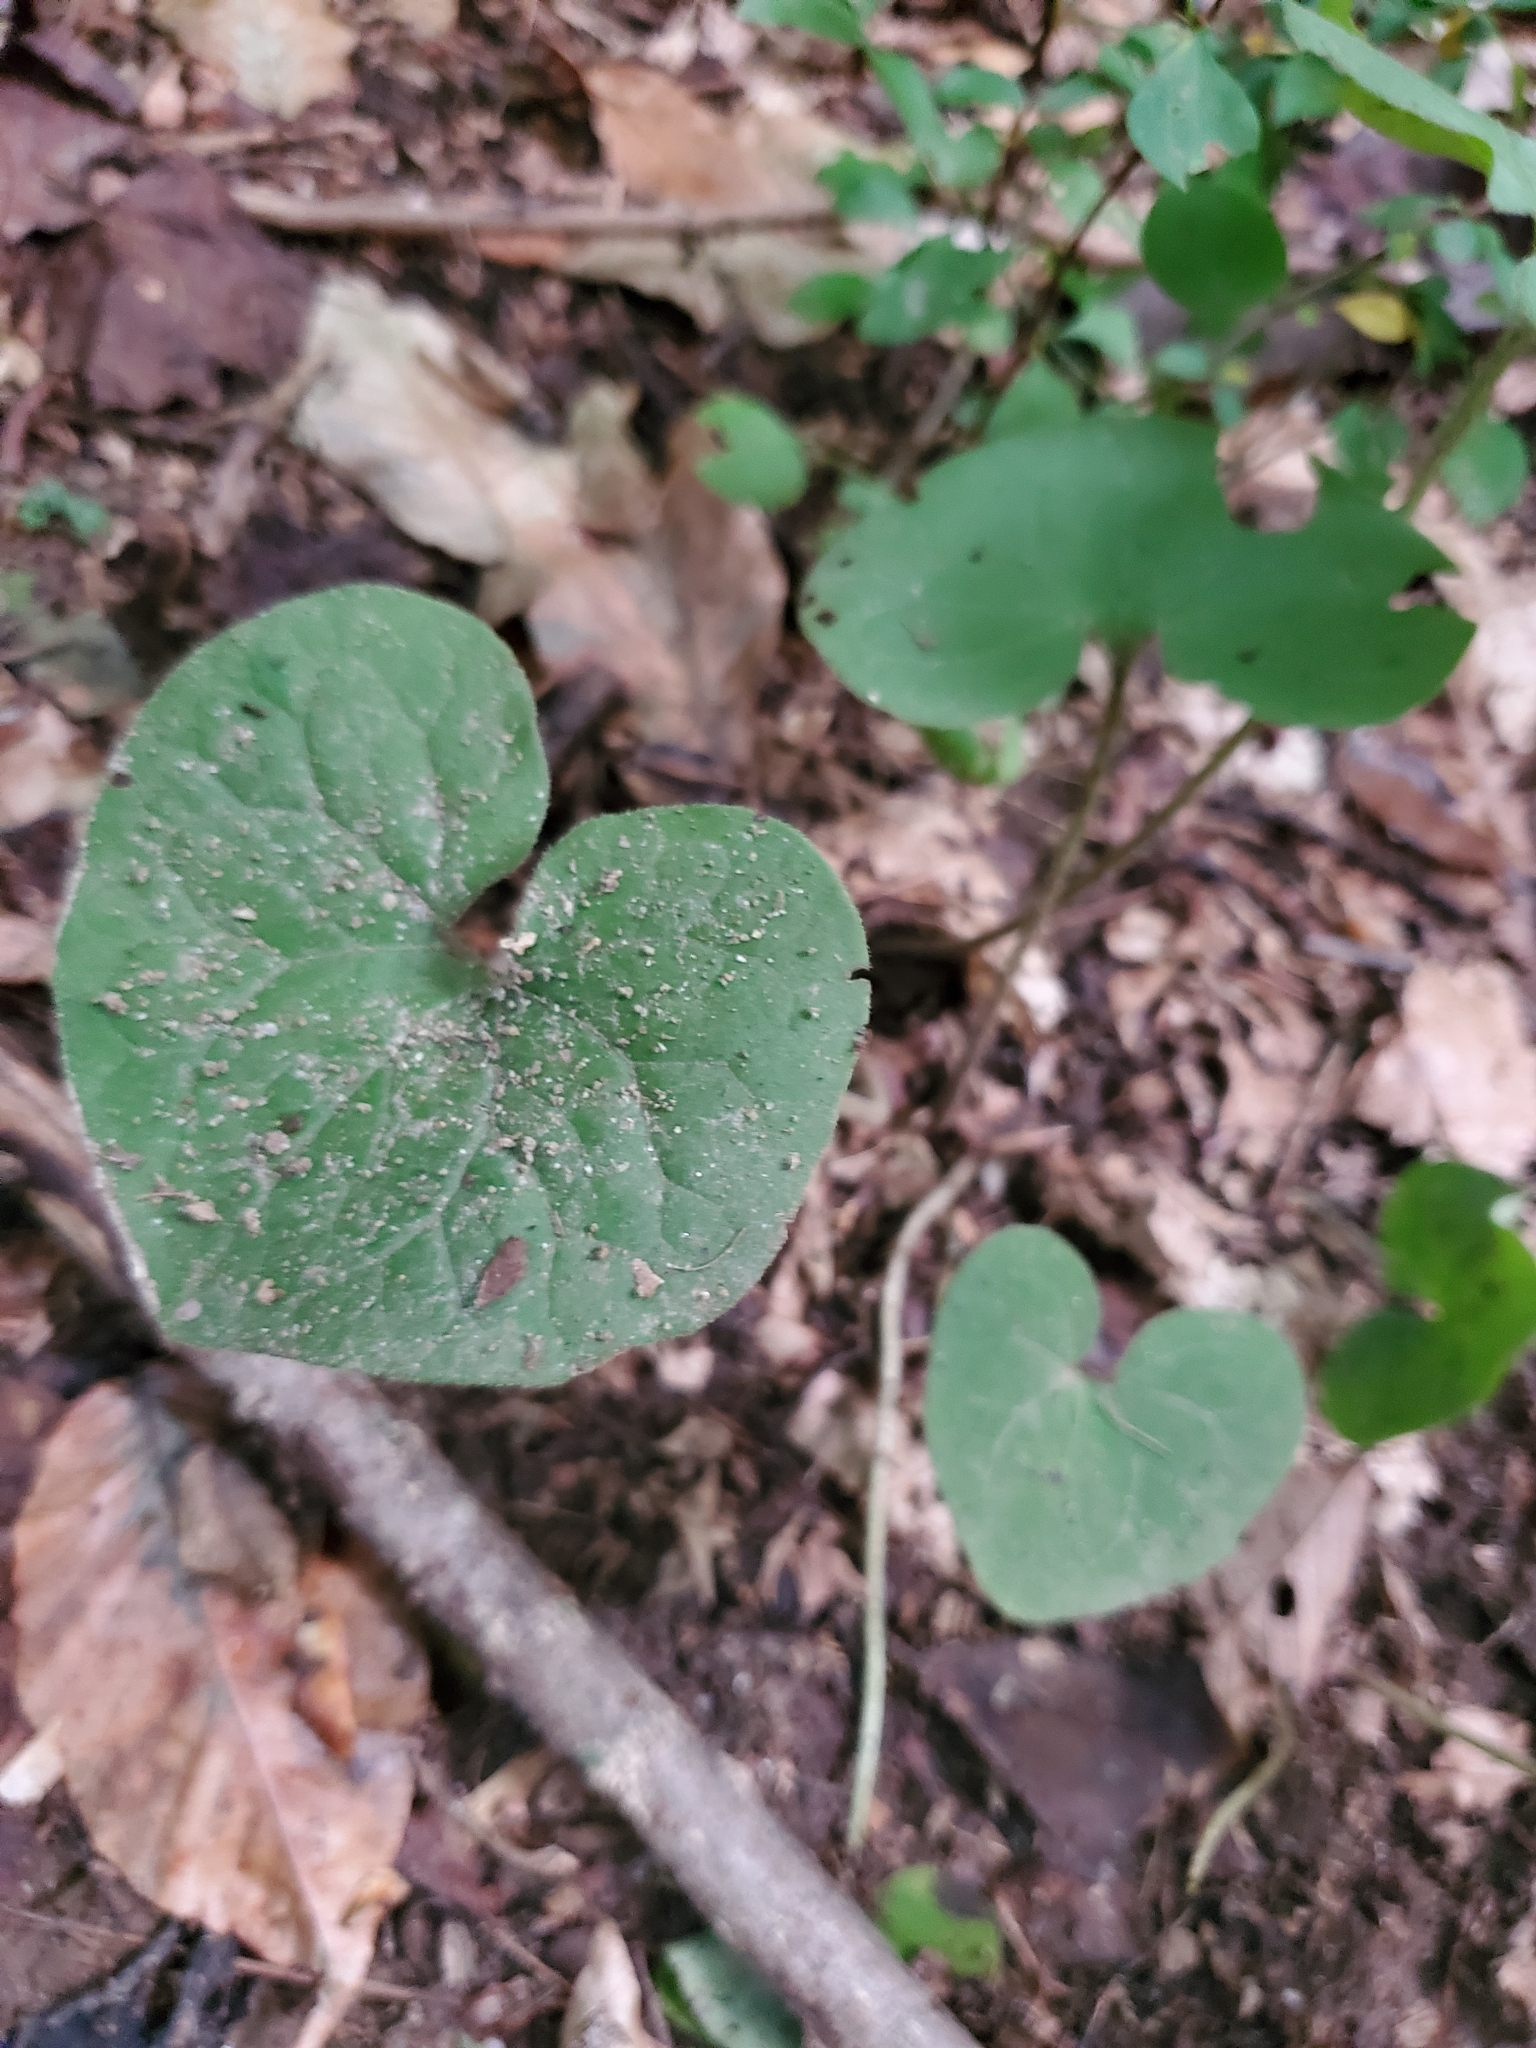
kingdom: Plantae
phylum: Tracheophyta
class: Magnoliopsida
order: Piperales
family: Aristolochiaceae
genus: Asarum
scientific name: Asarum canadense
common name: Wild ginger
